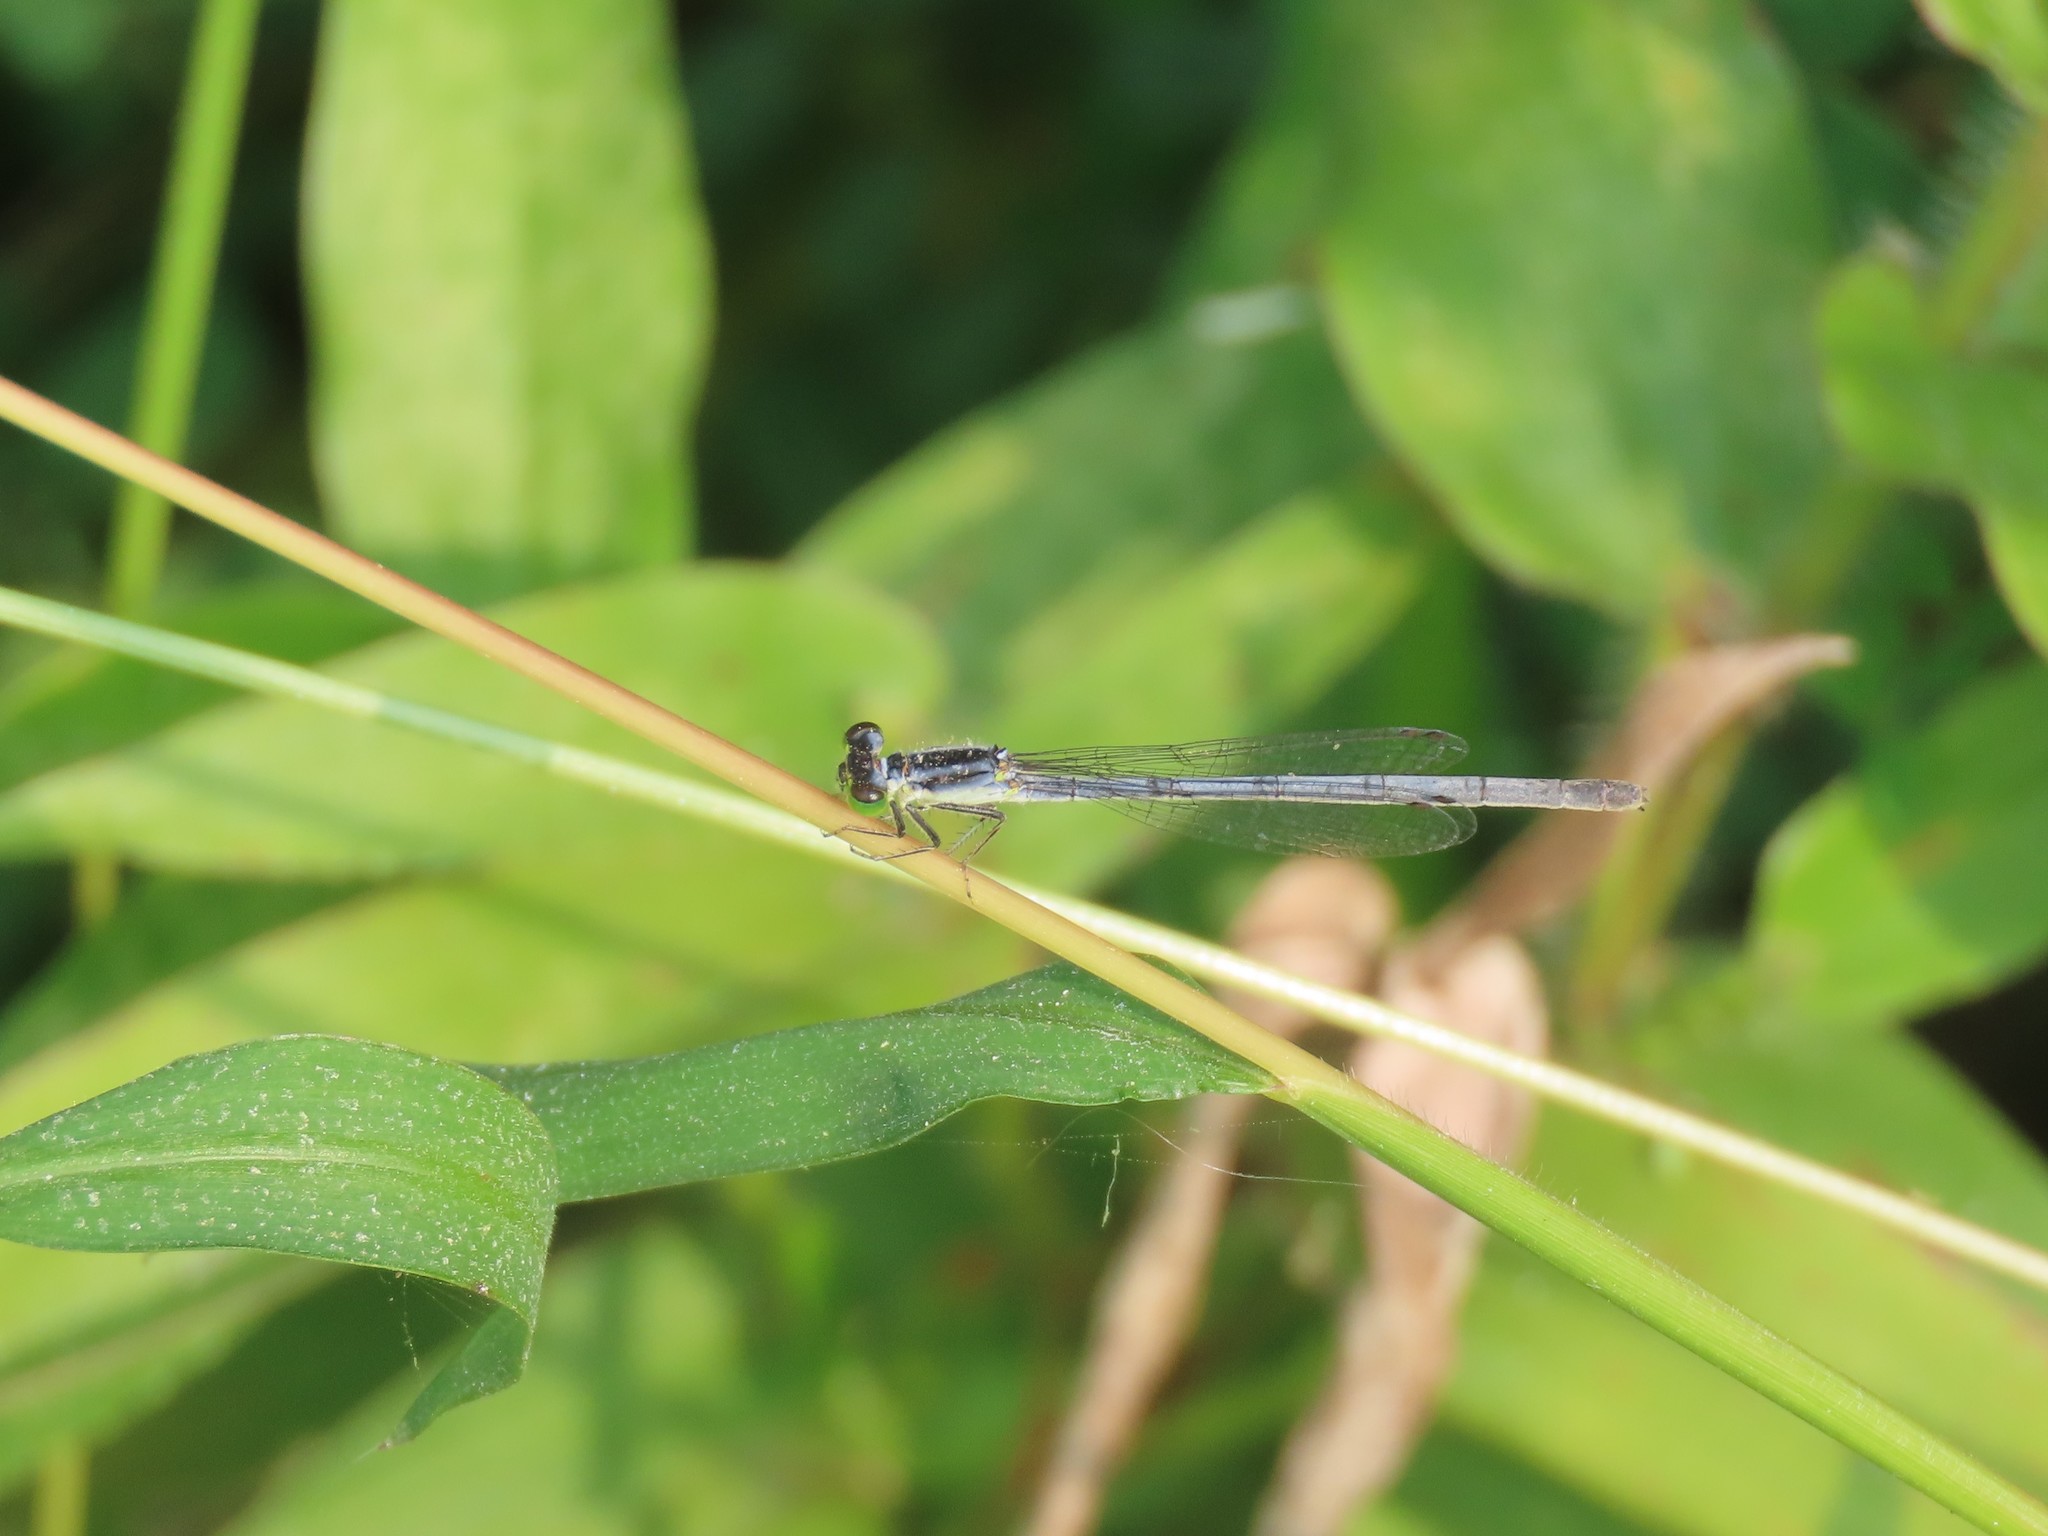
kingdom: Animalia
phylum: Arthropoda
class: Insecta
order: Odonata
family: Coenagrionidae
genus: Ischnura
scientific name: Ischnura verticalis
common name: Eastern forktail
